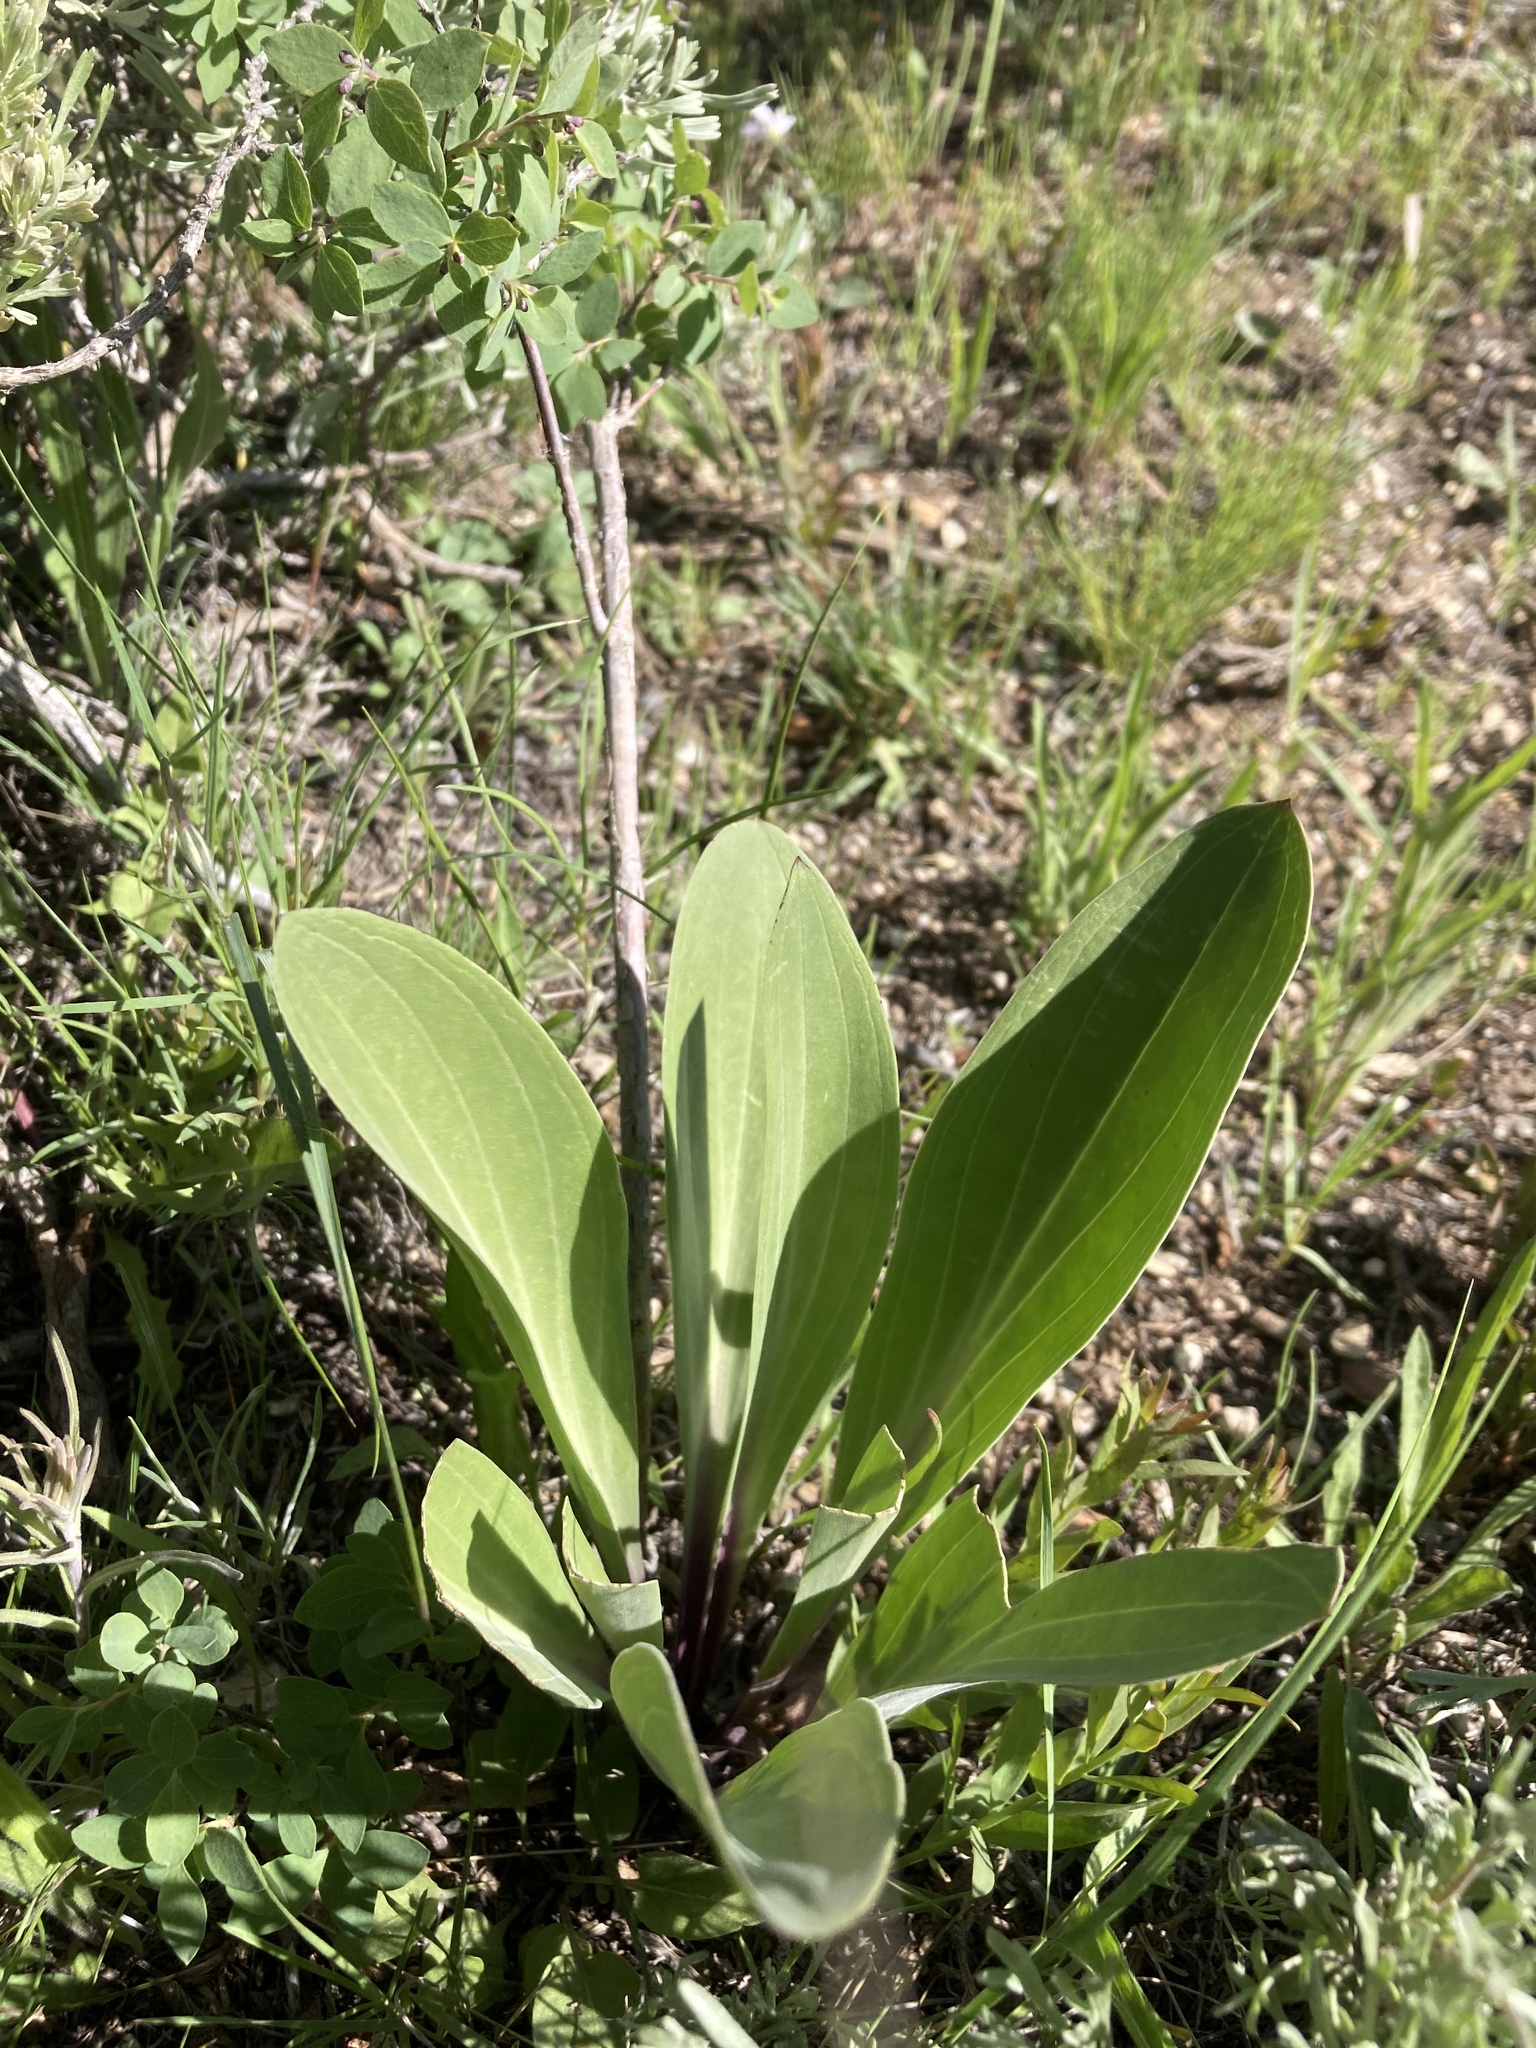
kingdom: Plantae
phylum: Tracheophyta
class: Magnoliopsida
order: Gentianales
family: Gentianaceae
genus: Frasera
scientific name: Frasera speciosa
